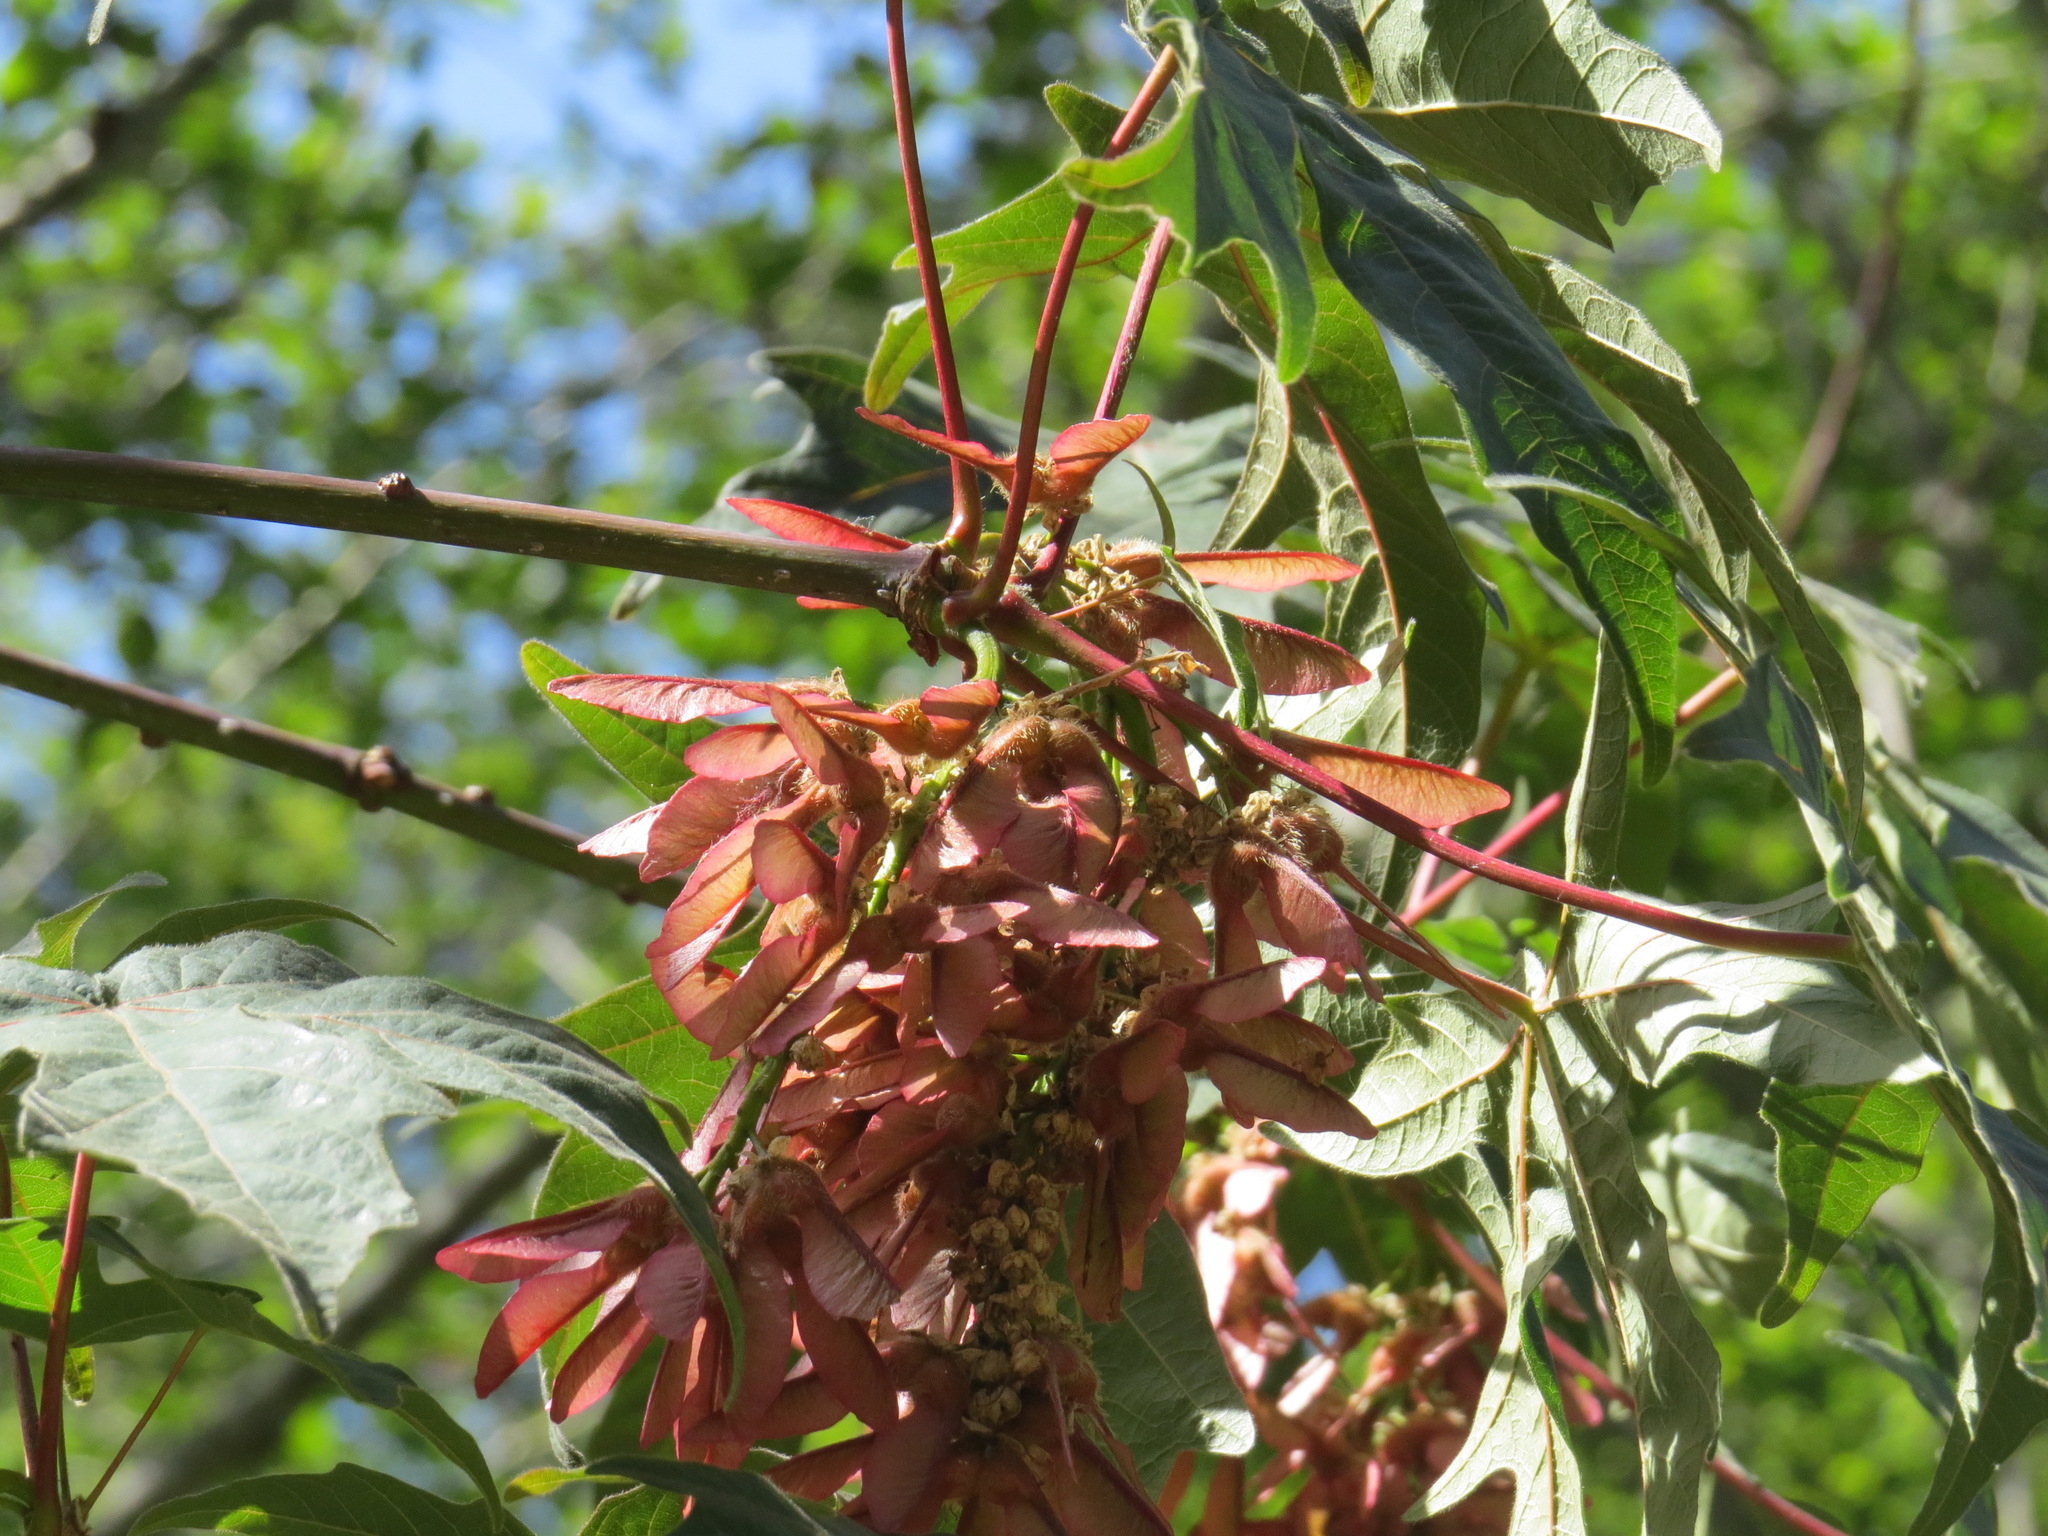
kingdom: Plantae
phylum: Tracheophyta
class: Magnoliopsida
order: Sapindales
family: Sapindaceae
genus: Acer
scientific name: Acer macrophyllum
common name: Oregon maple
